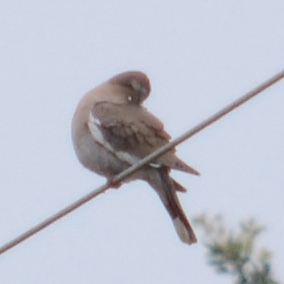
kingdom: Animalia
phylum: Chordata
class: Aves
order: Columbiformes
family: Columbidae
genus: Zenaida
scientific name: Zenaida asiatica
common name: White-winged dove
